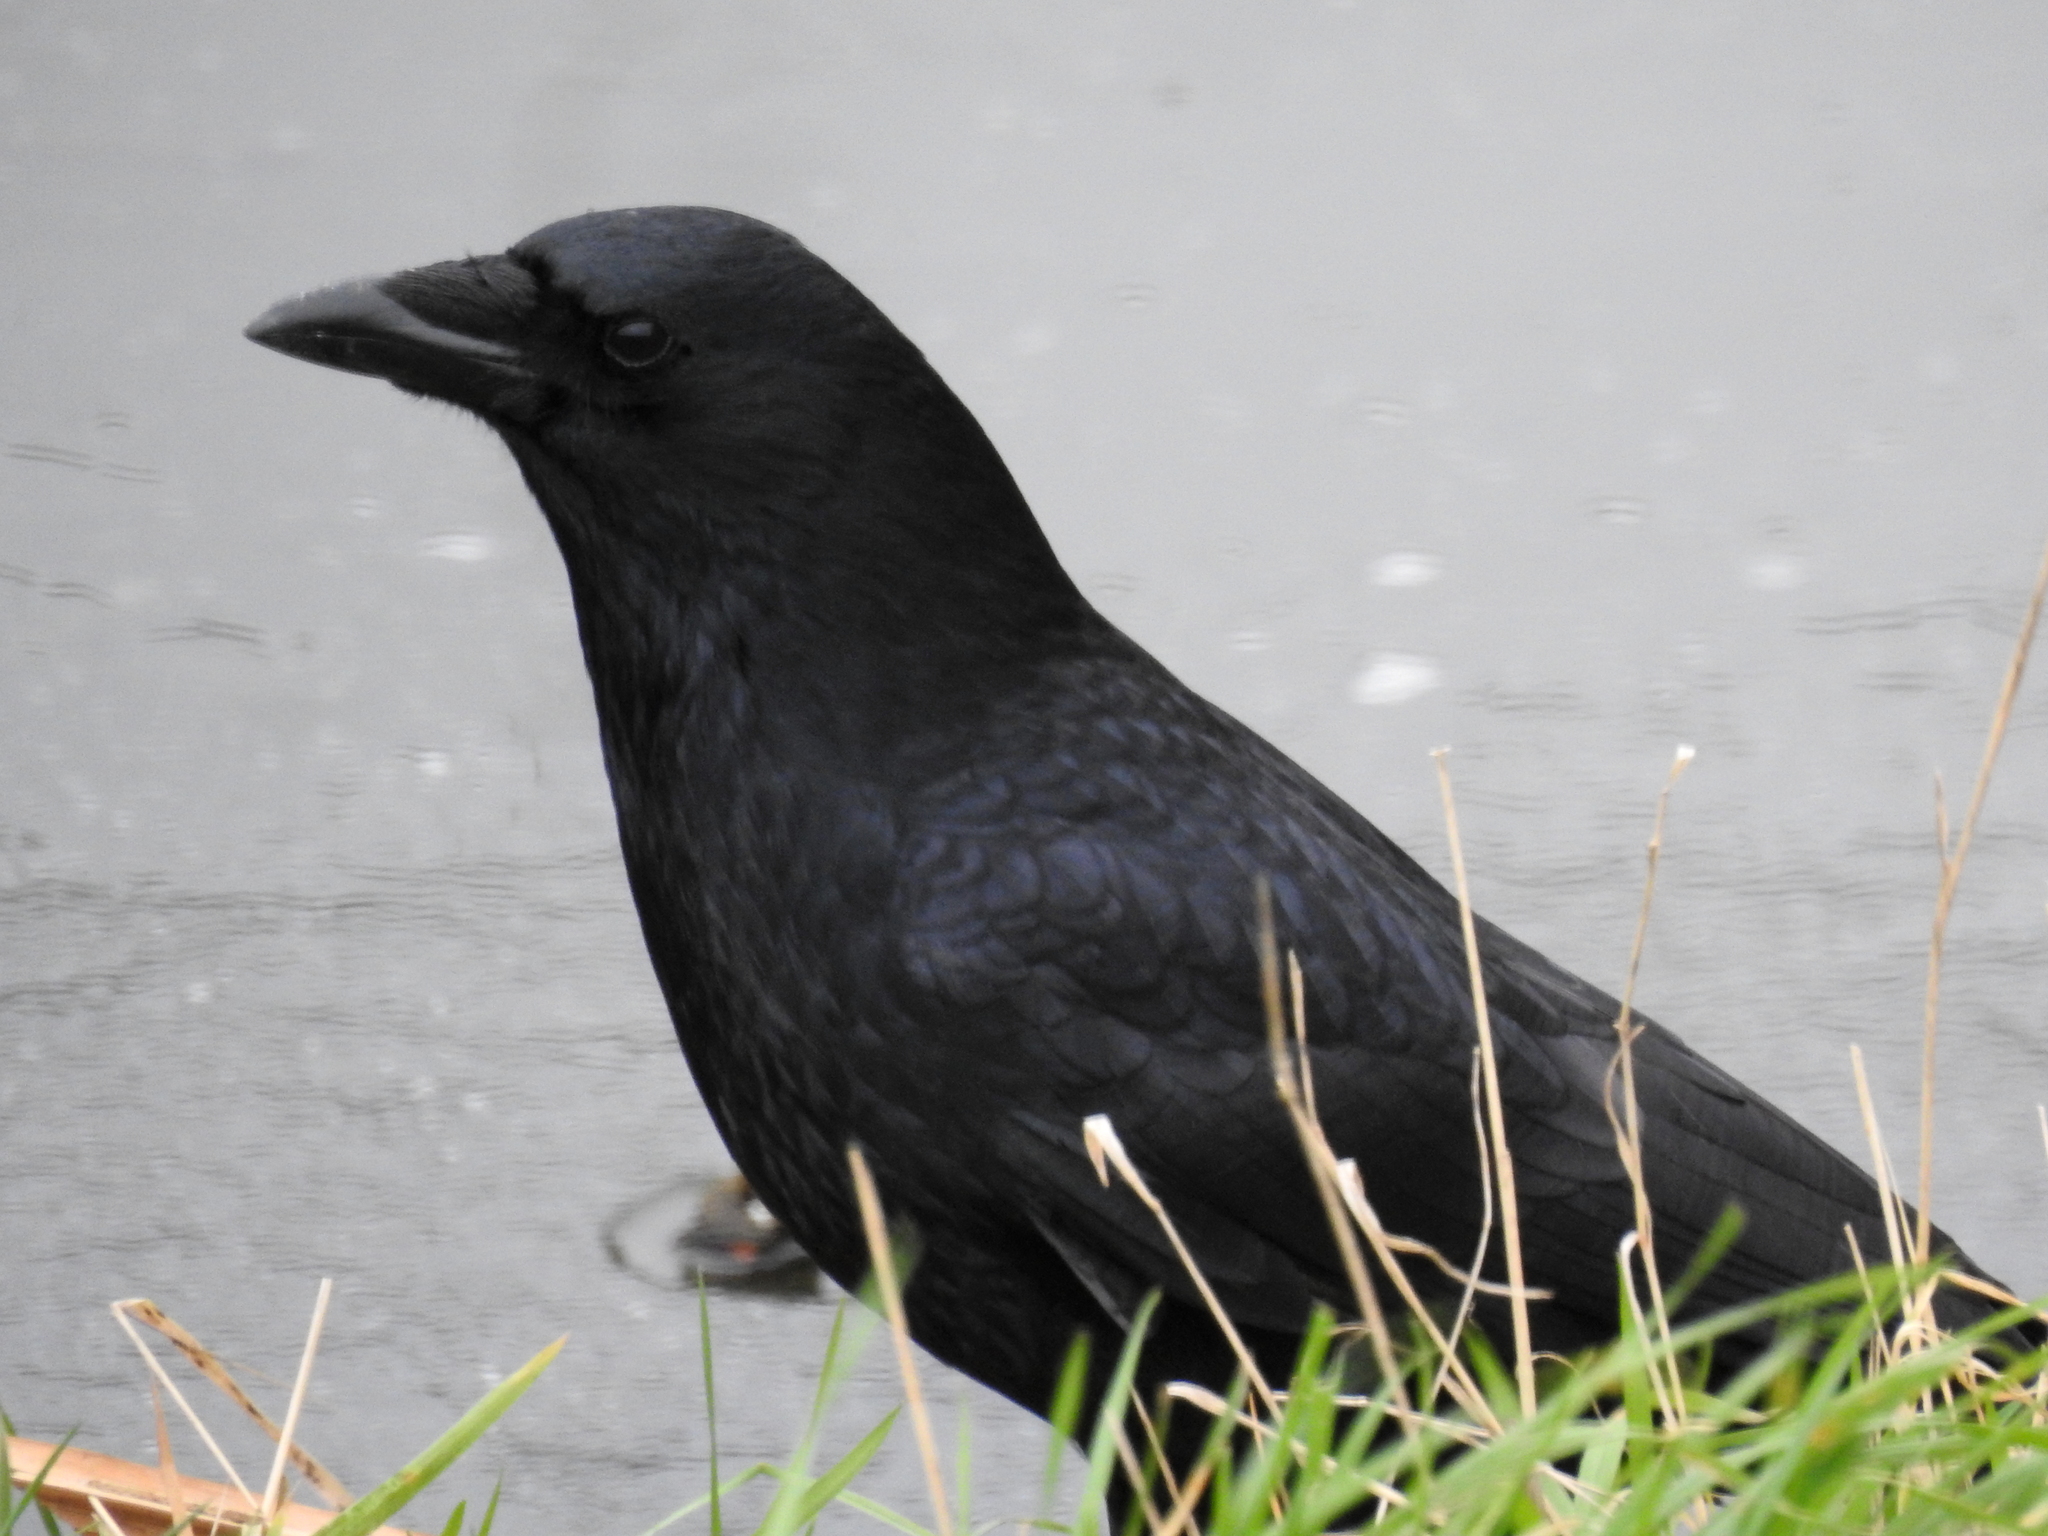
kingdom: Animalia
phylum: Chordata
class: Aves
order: Passeriformes
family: Corvidae
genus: Corvus
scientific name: Corvus corone
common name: Carrion crow
